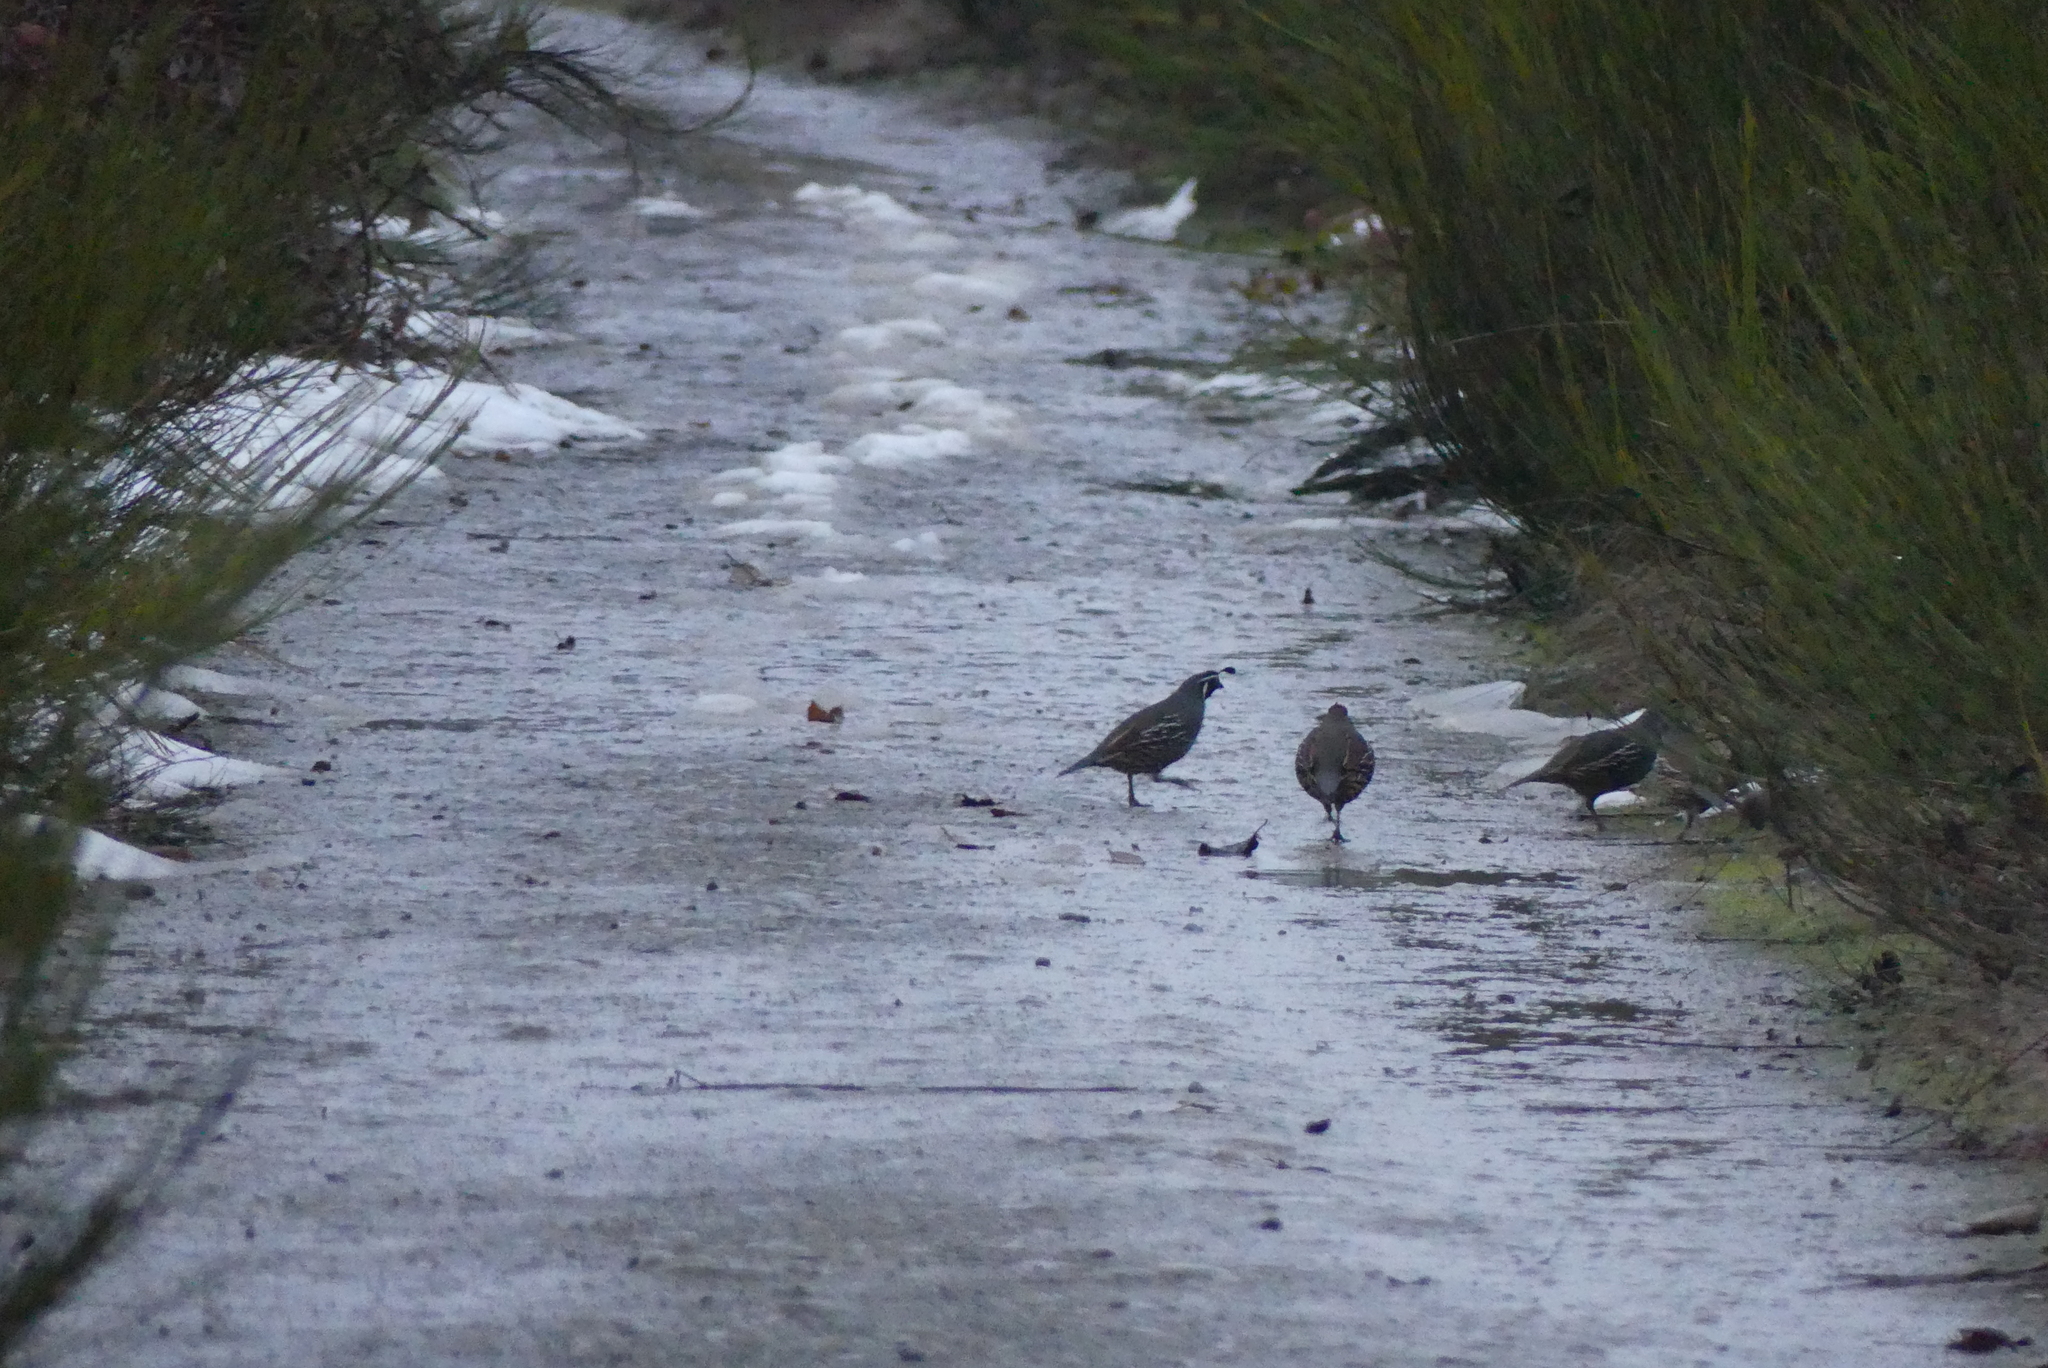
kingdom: Animalia
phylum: Chordata
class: Aves
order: Galliformes
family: Odontophoridae
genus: Callipepla
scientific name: Callipepla californica
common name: California quail
